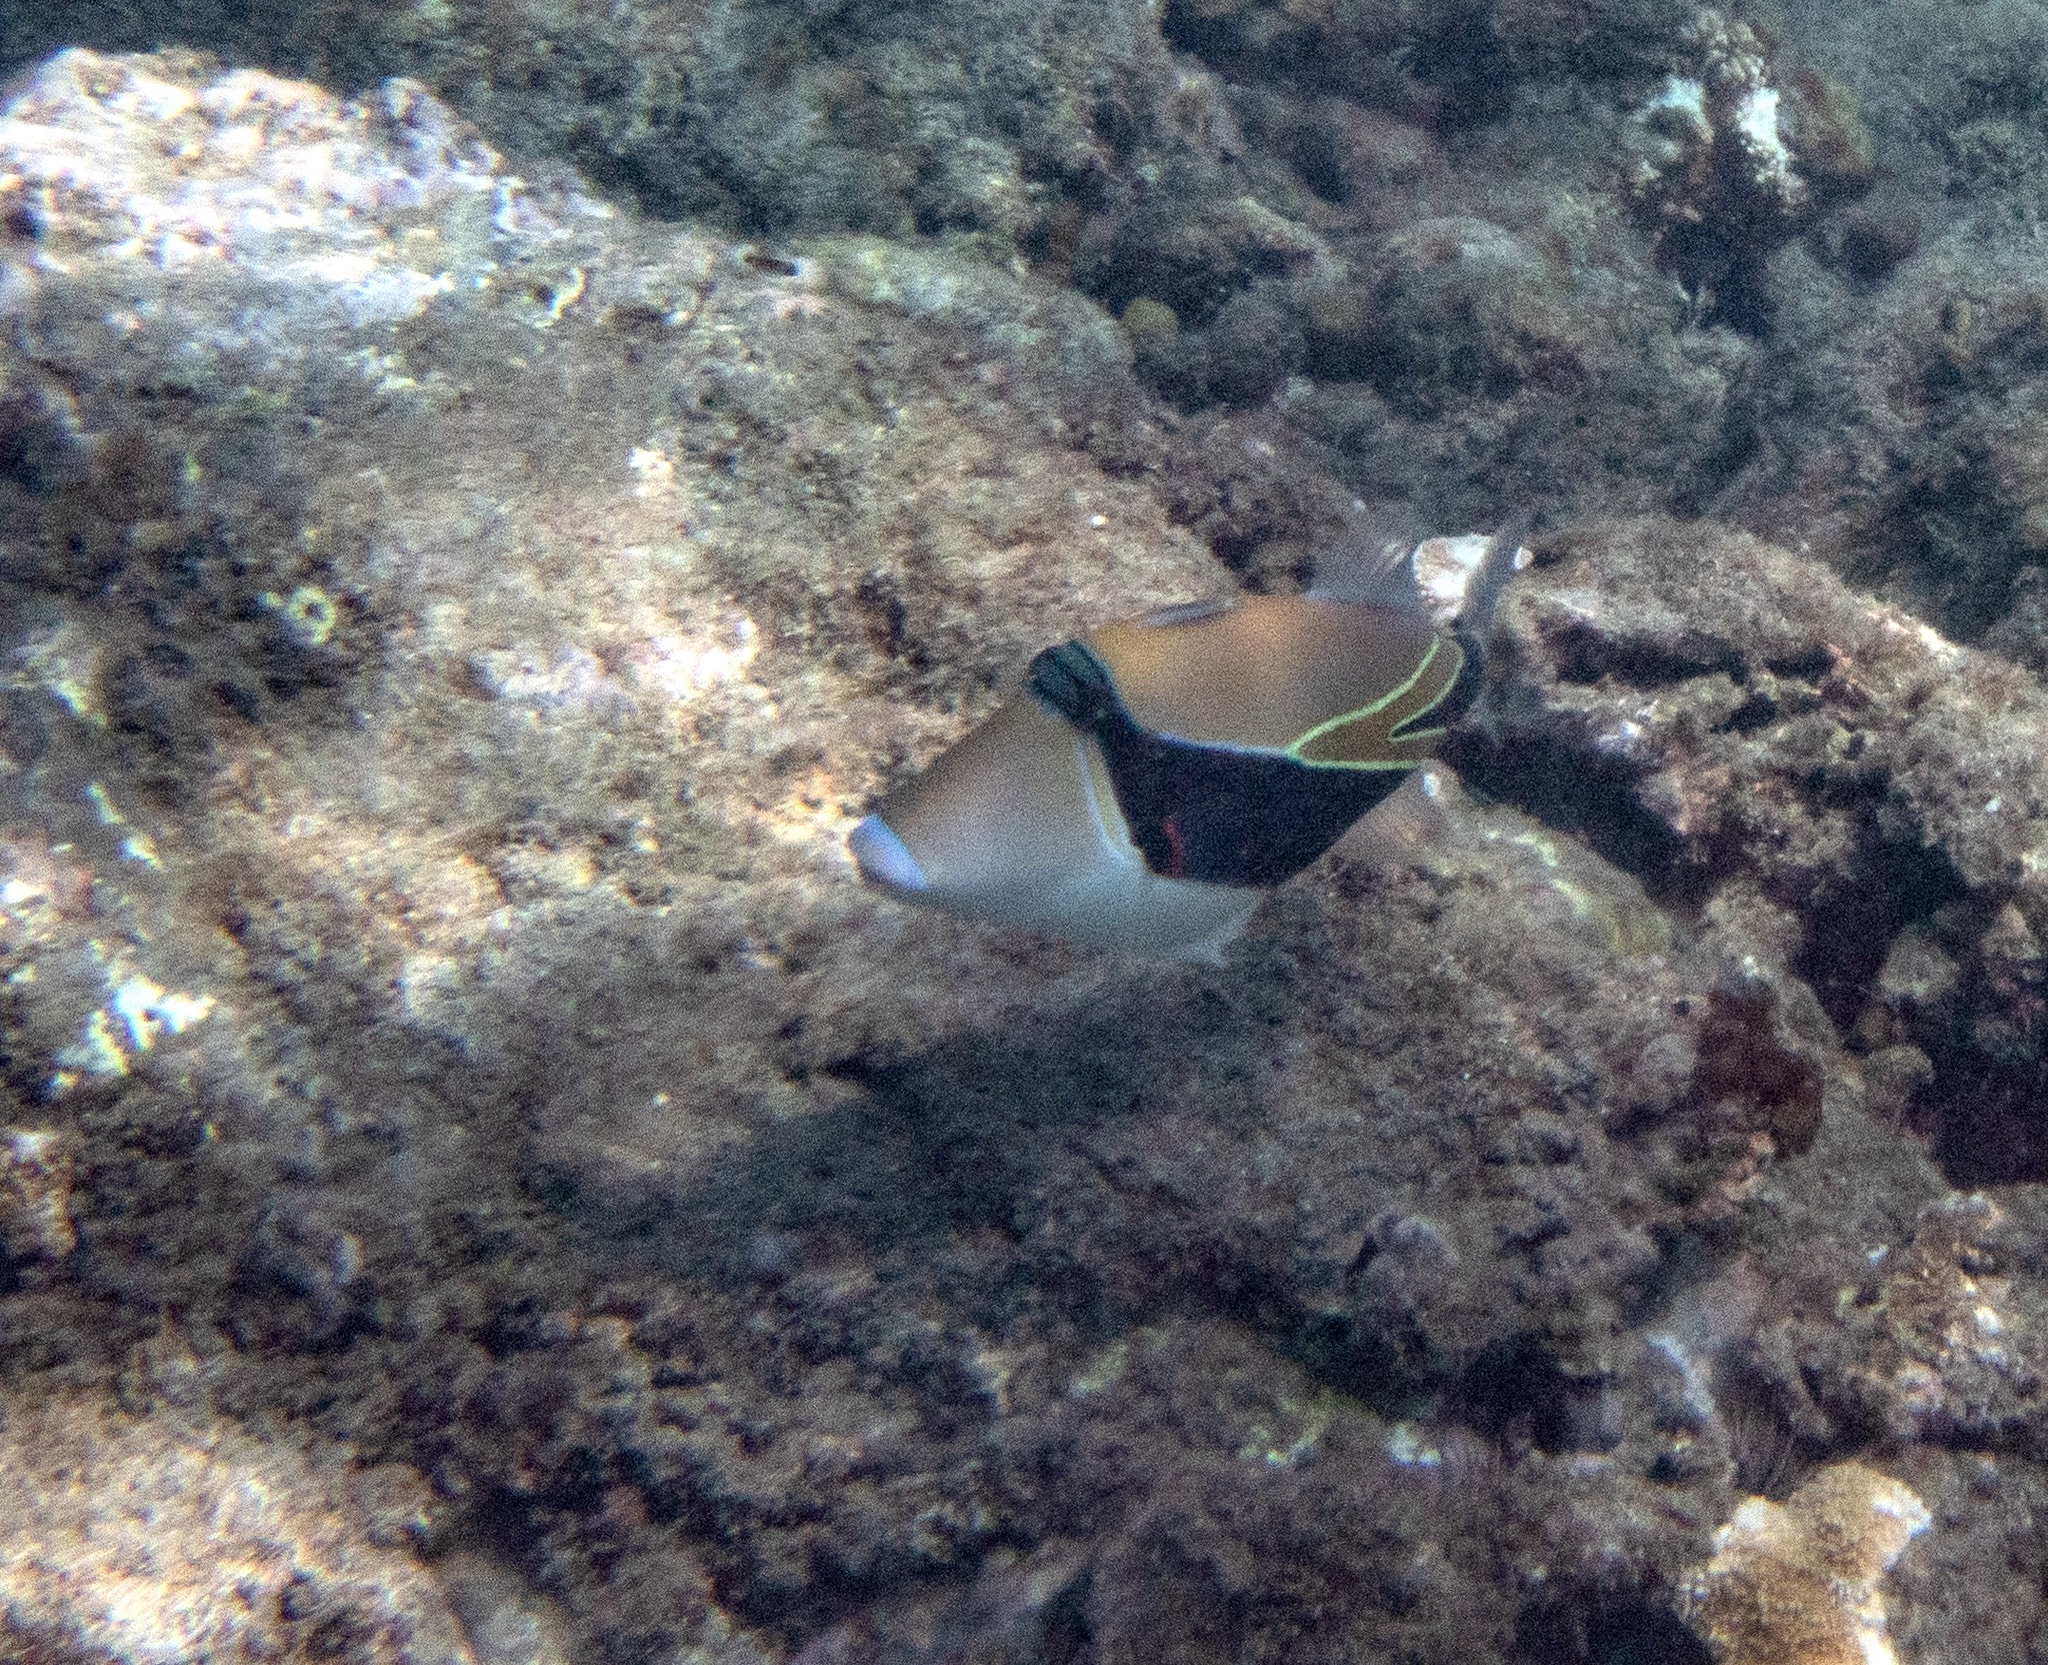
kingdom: Animalia
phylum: Chordata
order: Tetraodontiformes
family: Balistidae
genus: Rhinecanthus
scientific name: Rhinecanthus rectangulus
